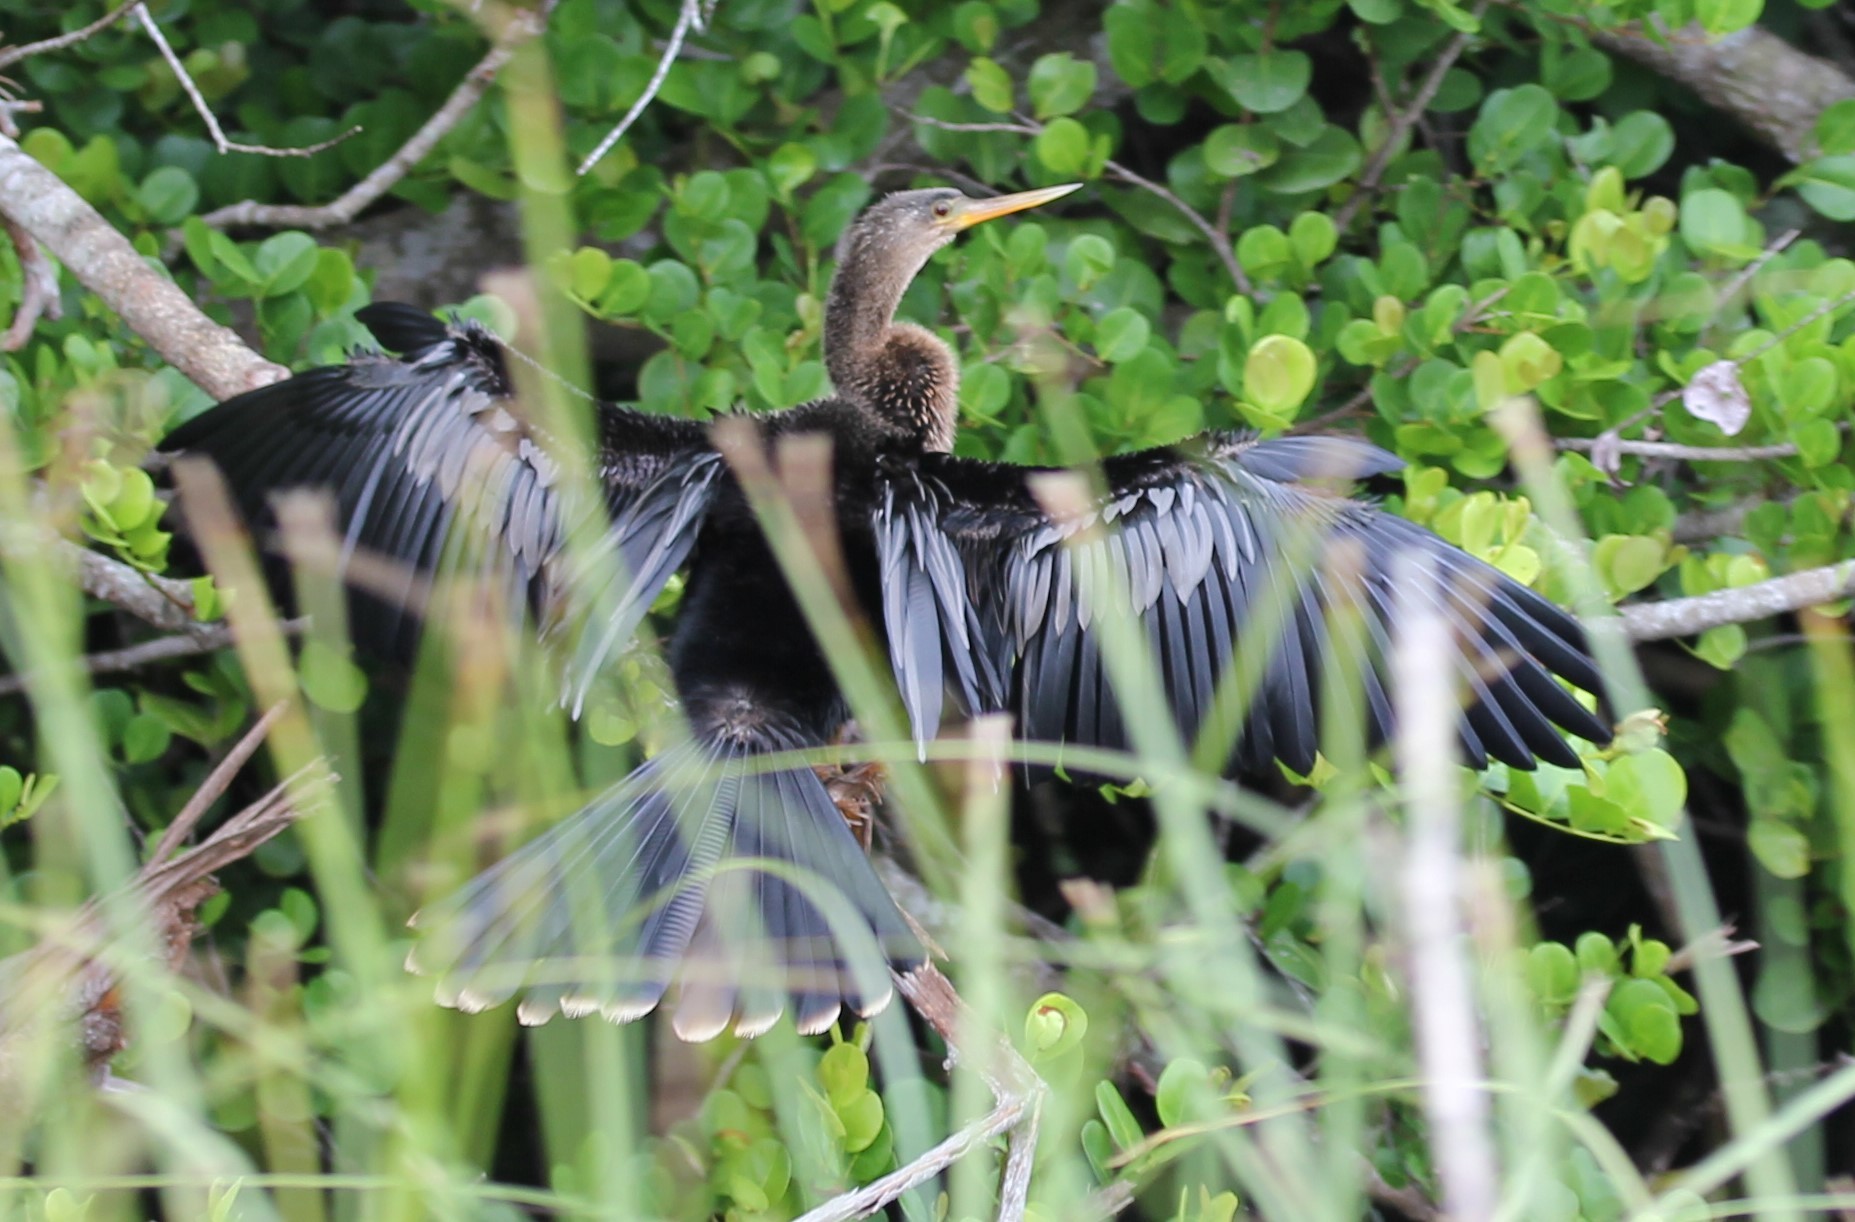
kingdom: Animalia
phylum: Chordata
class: Aves
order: Suliformes
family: Anhingidae
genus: Anhinga
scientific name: Anhinga anhinga
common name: Anhinga
